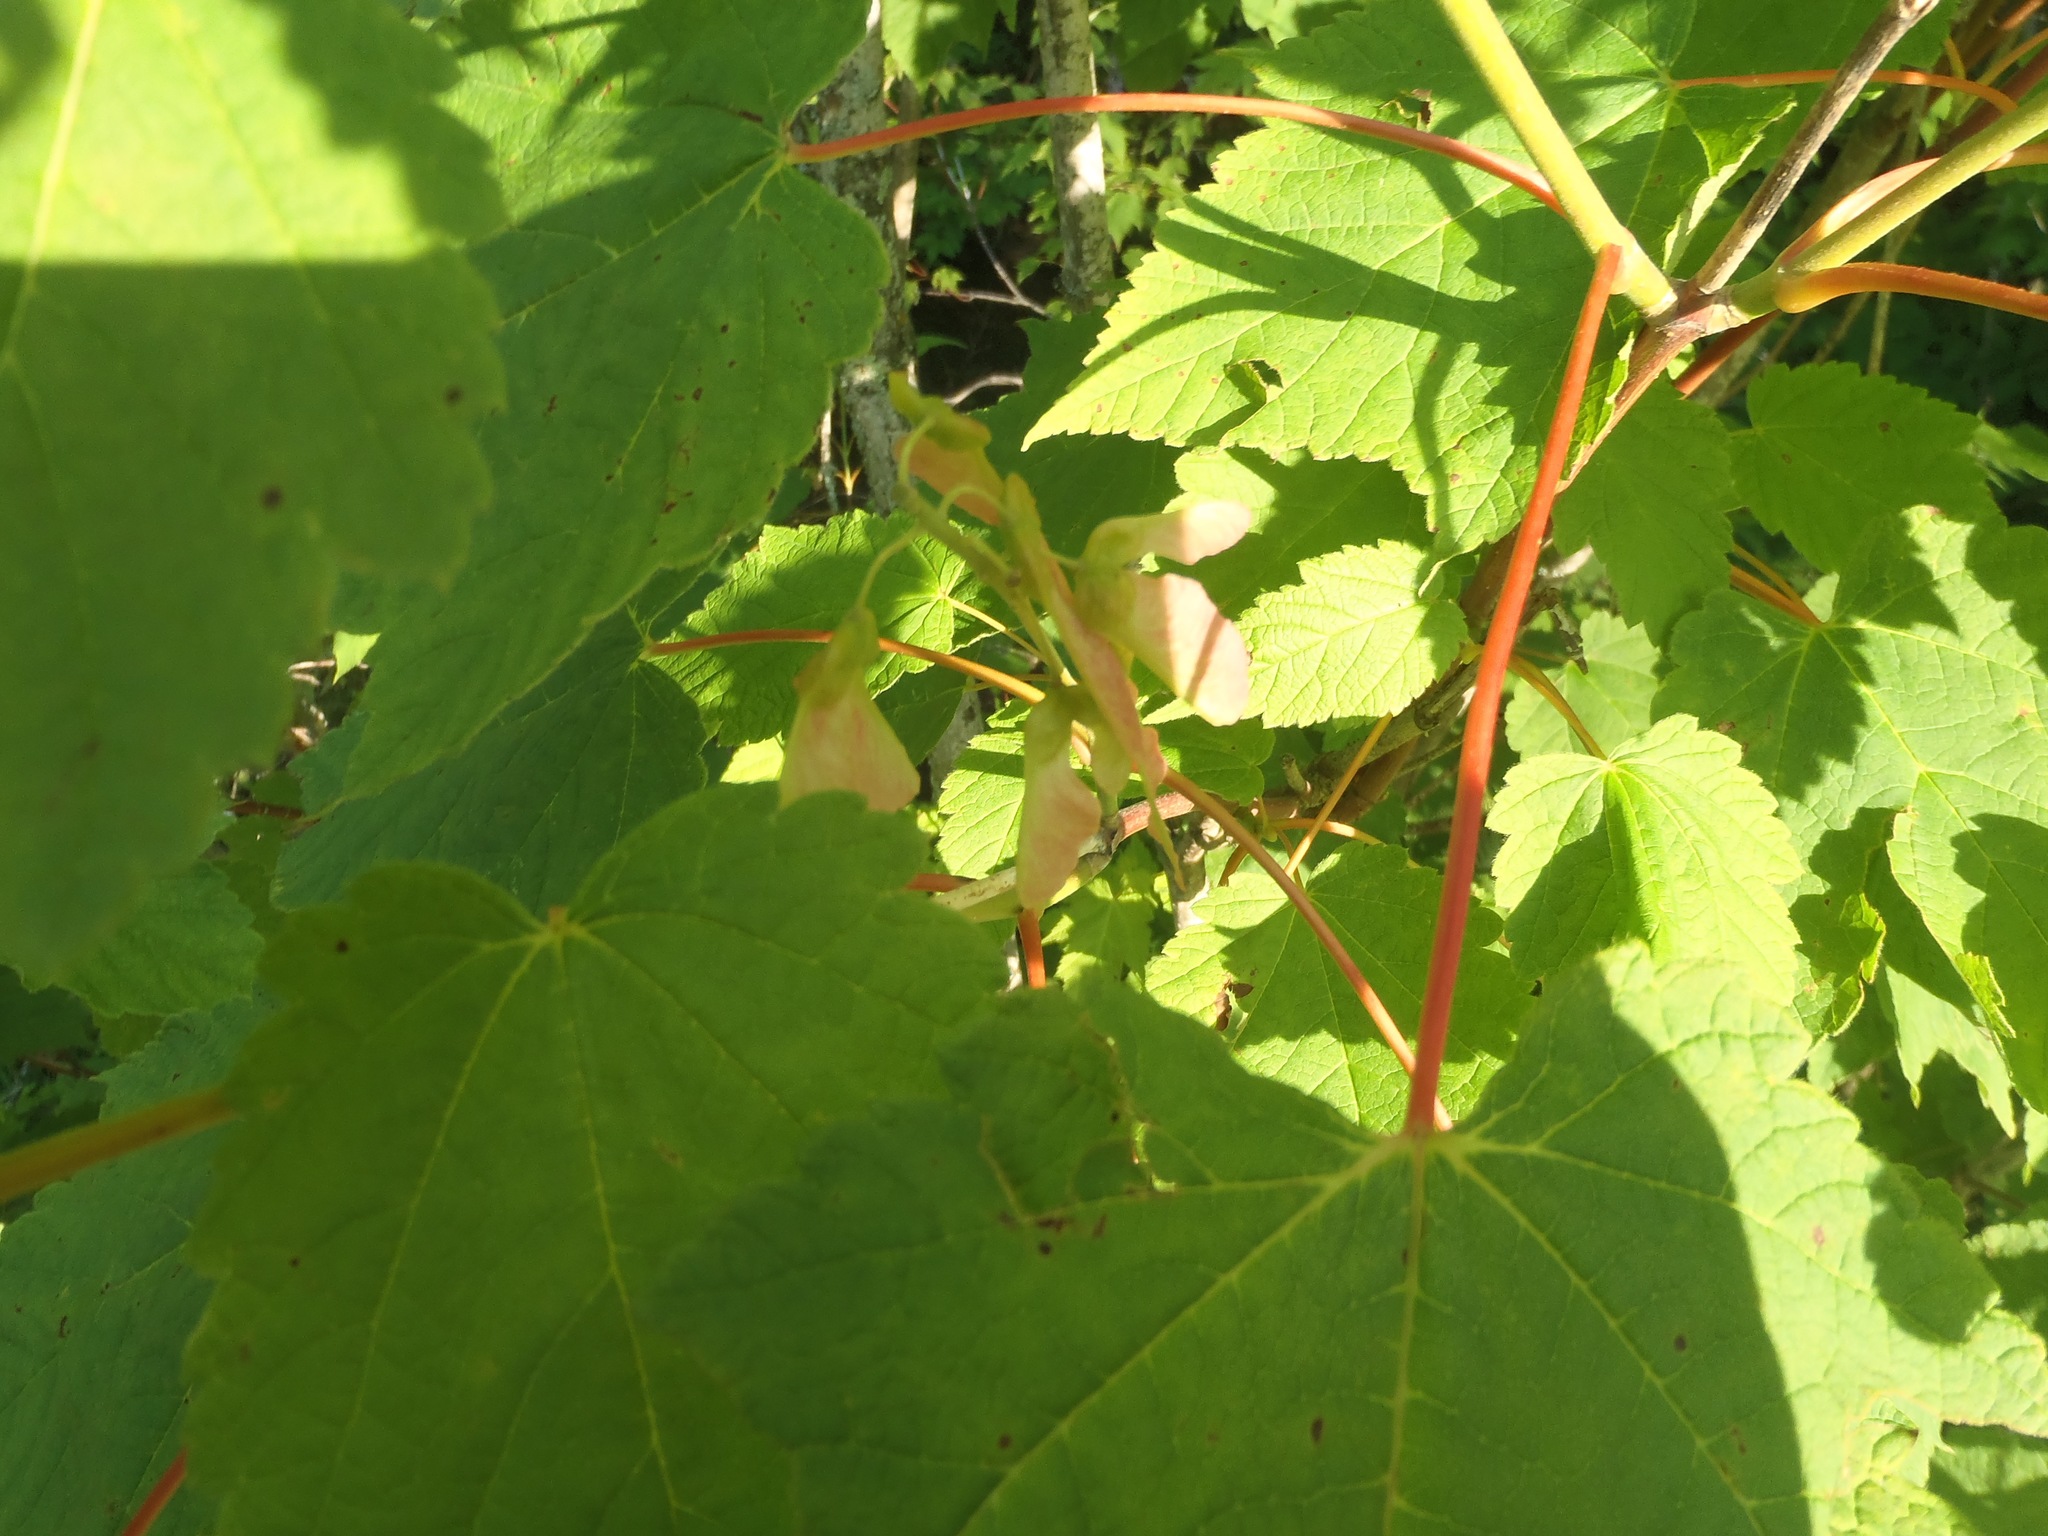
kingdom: Plantae
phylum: Tracheophyta
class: Magnoliopsida
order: Sapindales
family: Sapindaceae
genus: Acer
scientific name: Acer spicatum
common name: Mountain maple
